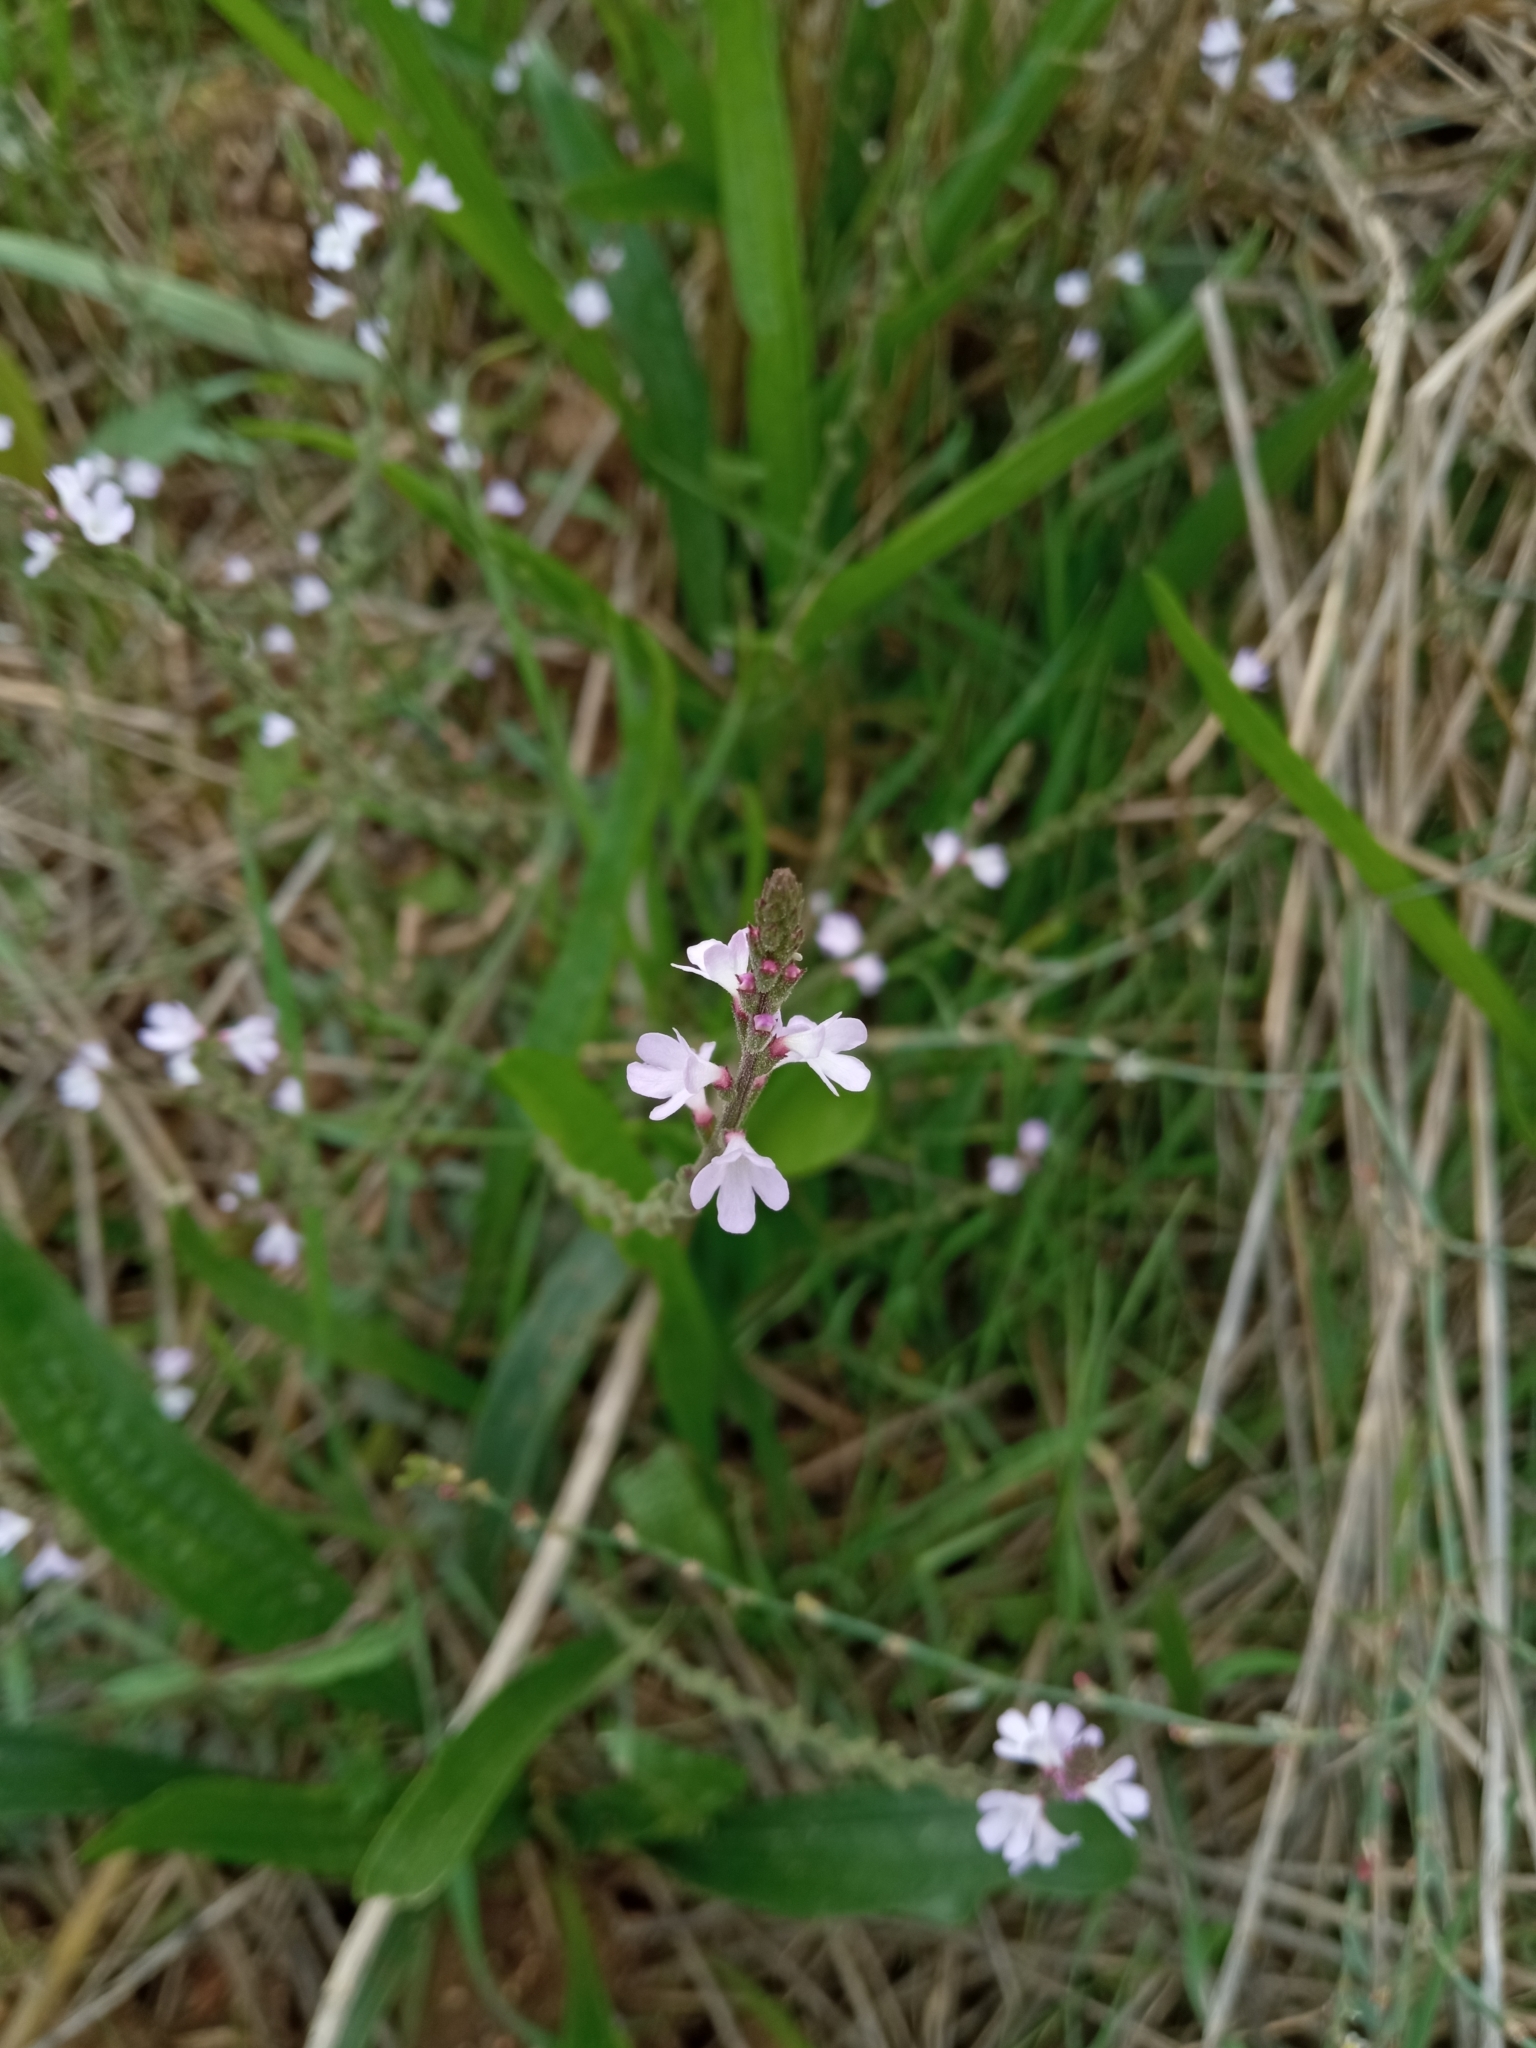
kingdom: Plantae
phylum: Tracheophyta
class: Magnoliopsida
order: Lamiales
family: Verbenaceae
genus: Verbena
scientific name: Verbena officinalis
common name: Vervain
